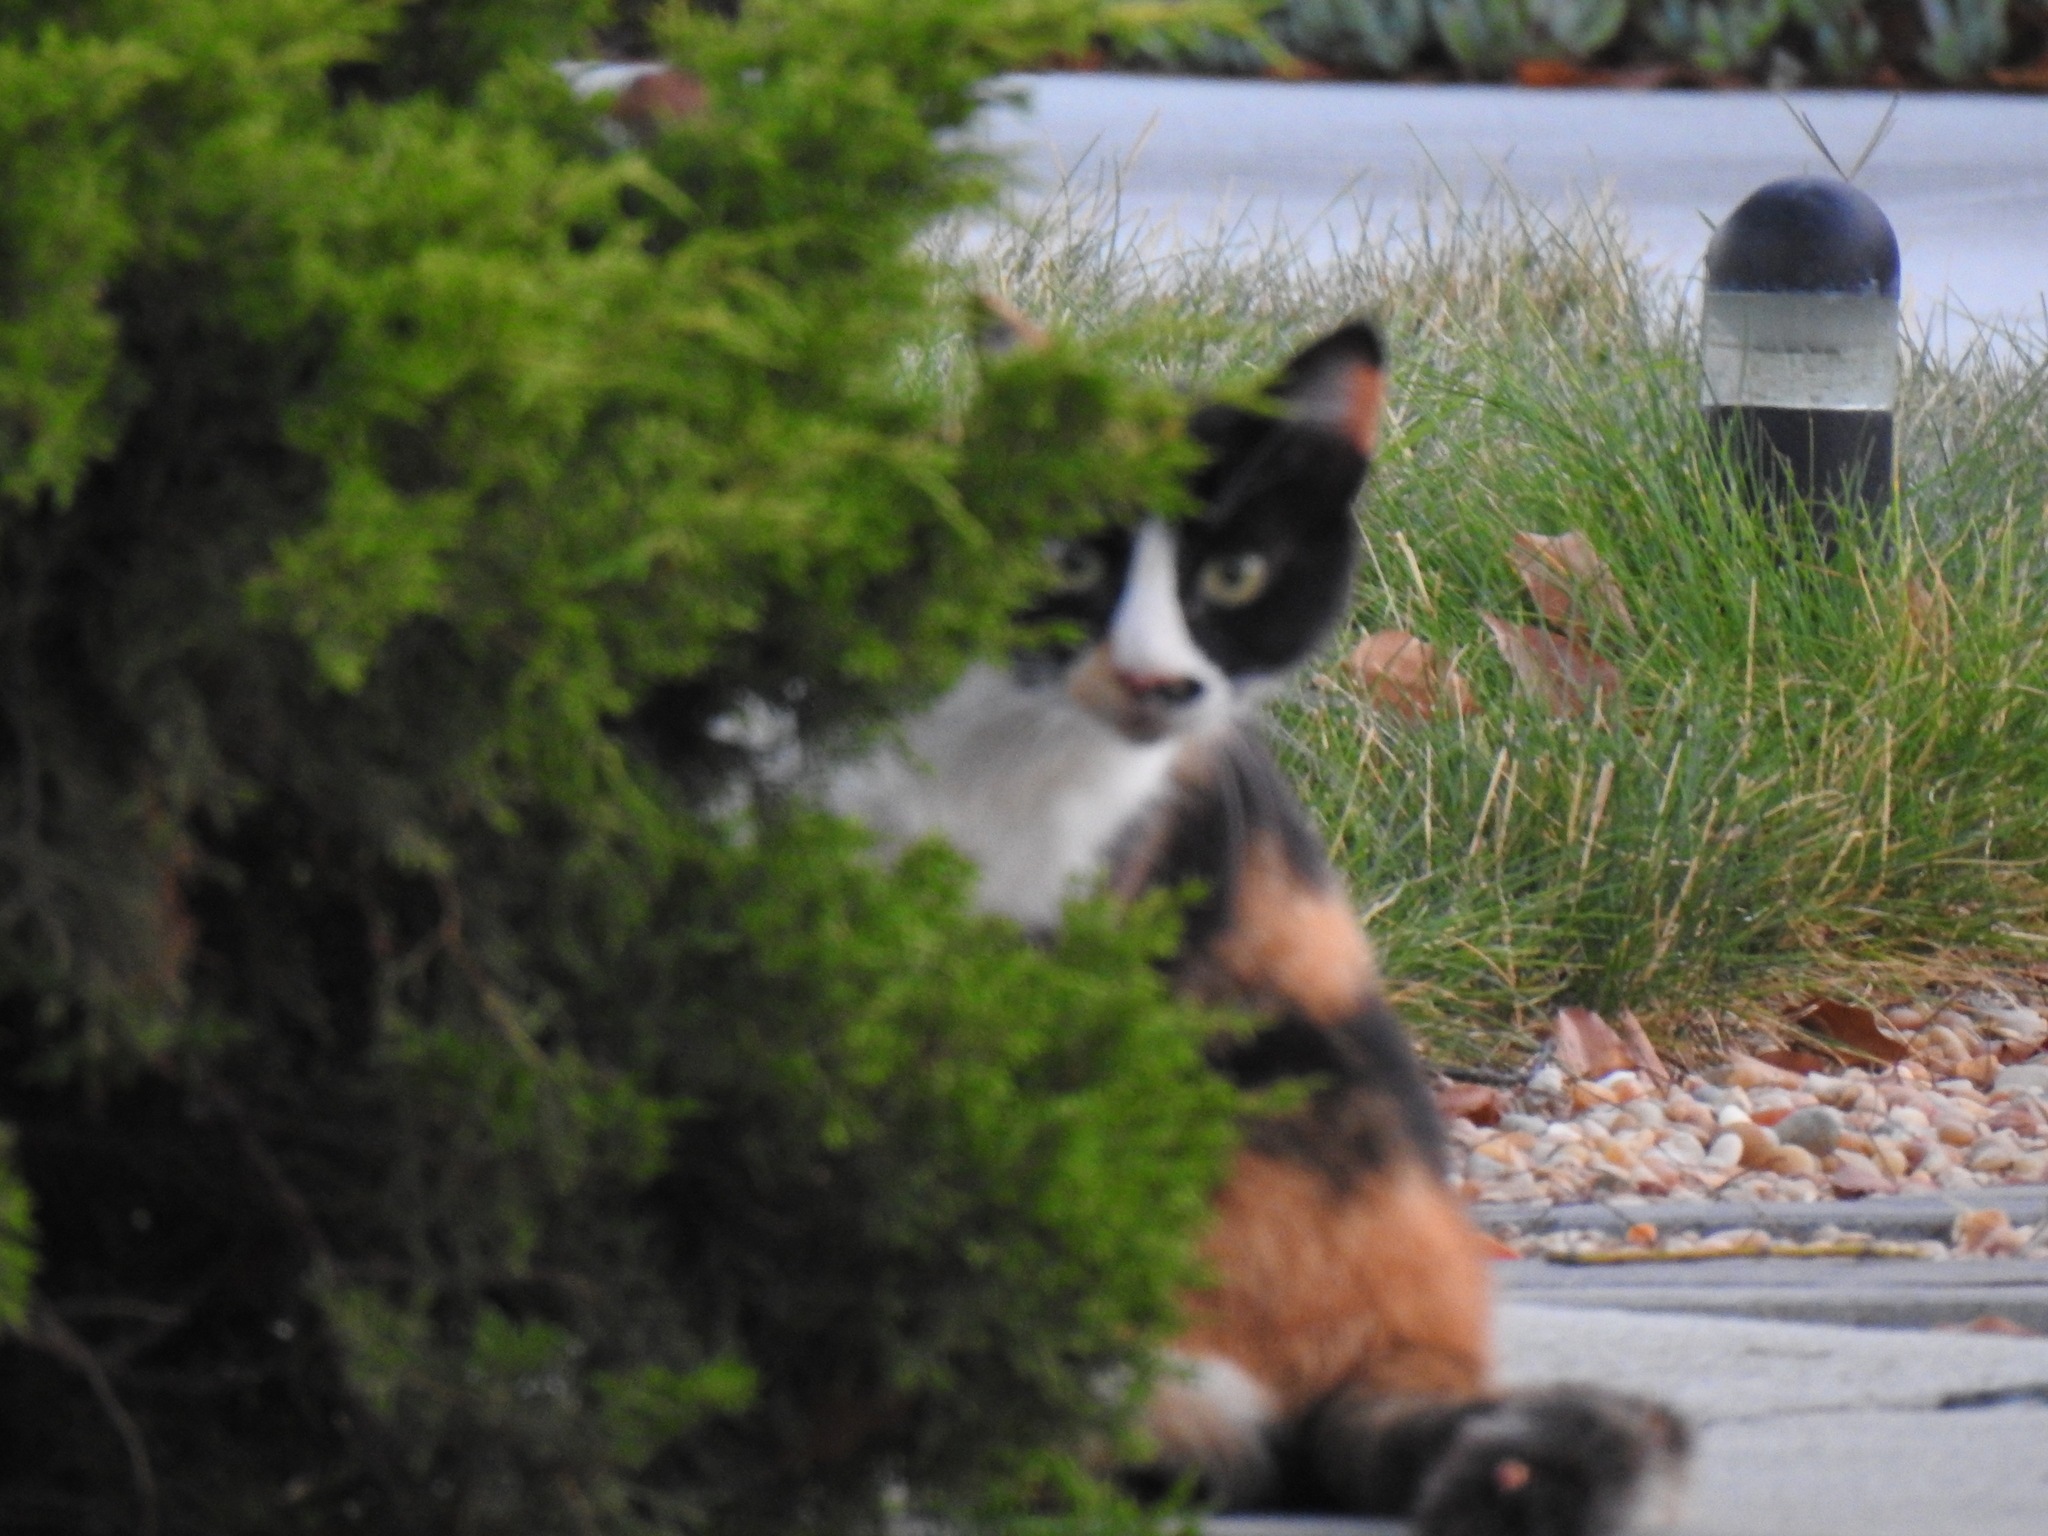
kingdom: Animalia
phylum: Chordata
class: Mammalia
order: Carnivora
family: Felidae
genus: Felis
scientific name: Felis catus
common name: Domestic cat
